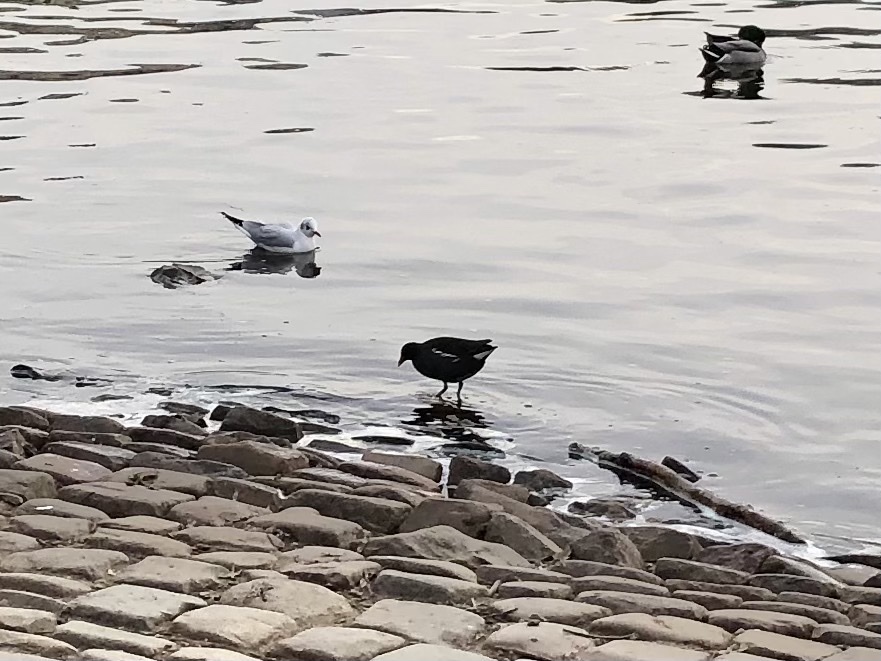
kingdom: Animalia
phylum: Chordata
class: Aves
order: Gruiformes
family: Rallidae
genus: Gallinula
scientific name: Gallinula chloropus
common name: Common moorhen
